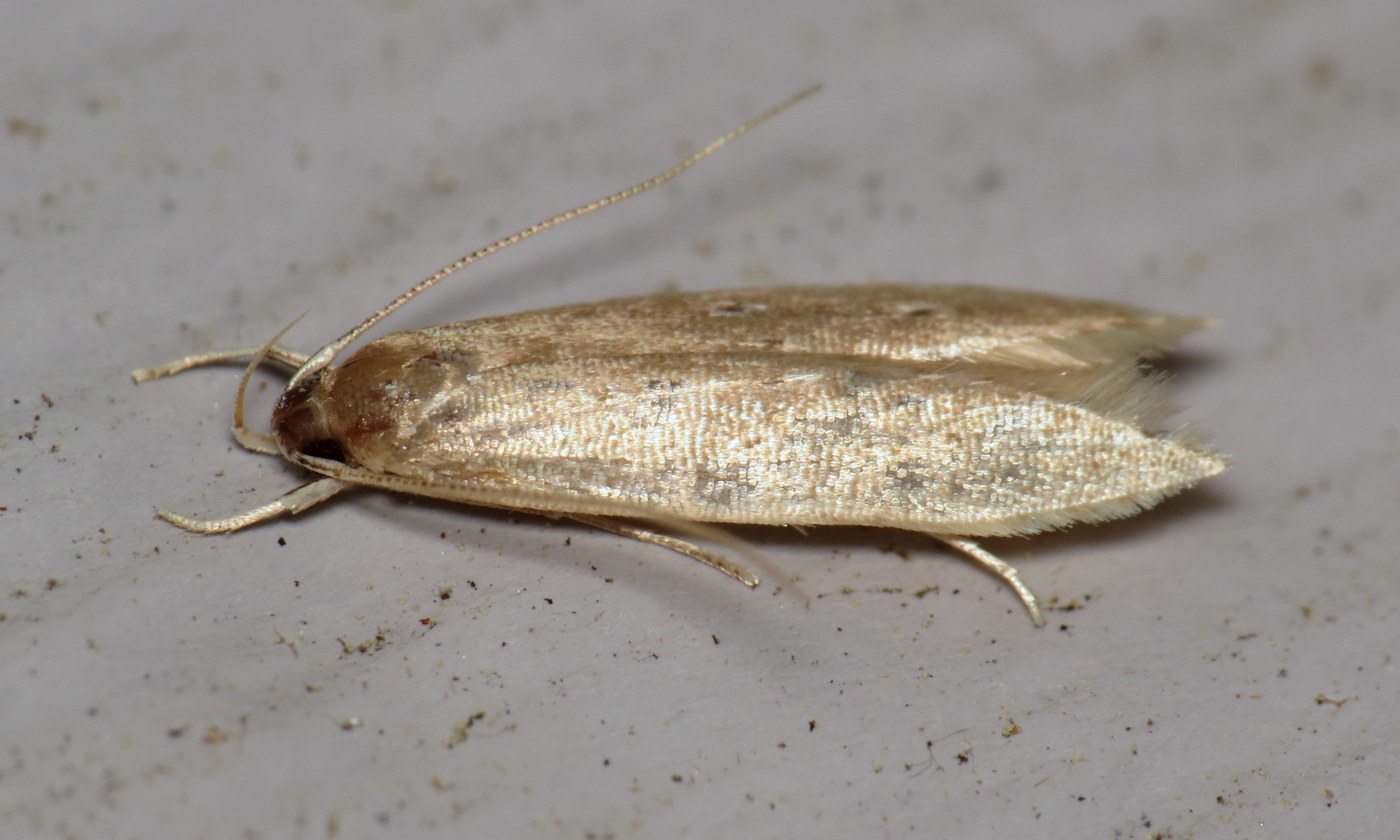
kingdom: Animalia
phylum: Arthropoda
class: Insecta
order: Lepidoptera
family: Cosmopterigidae
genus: Limnaecia
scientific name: Limnaecia phragmitella
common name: Bulrush cosmet
